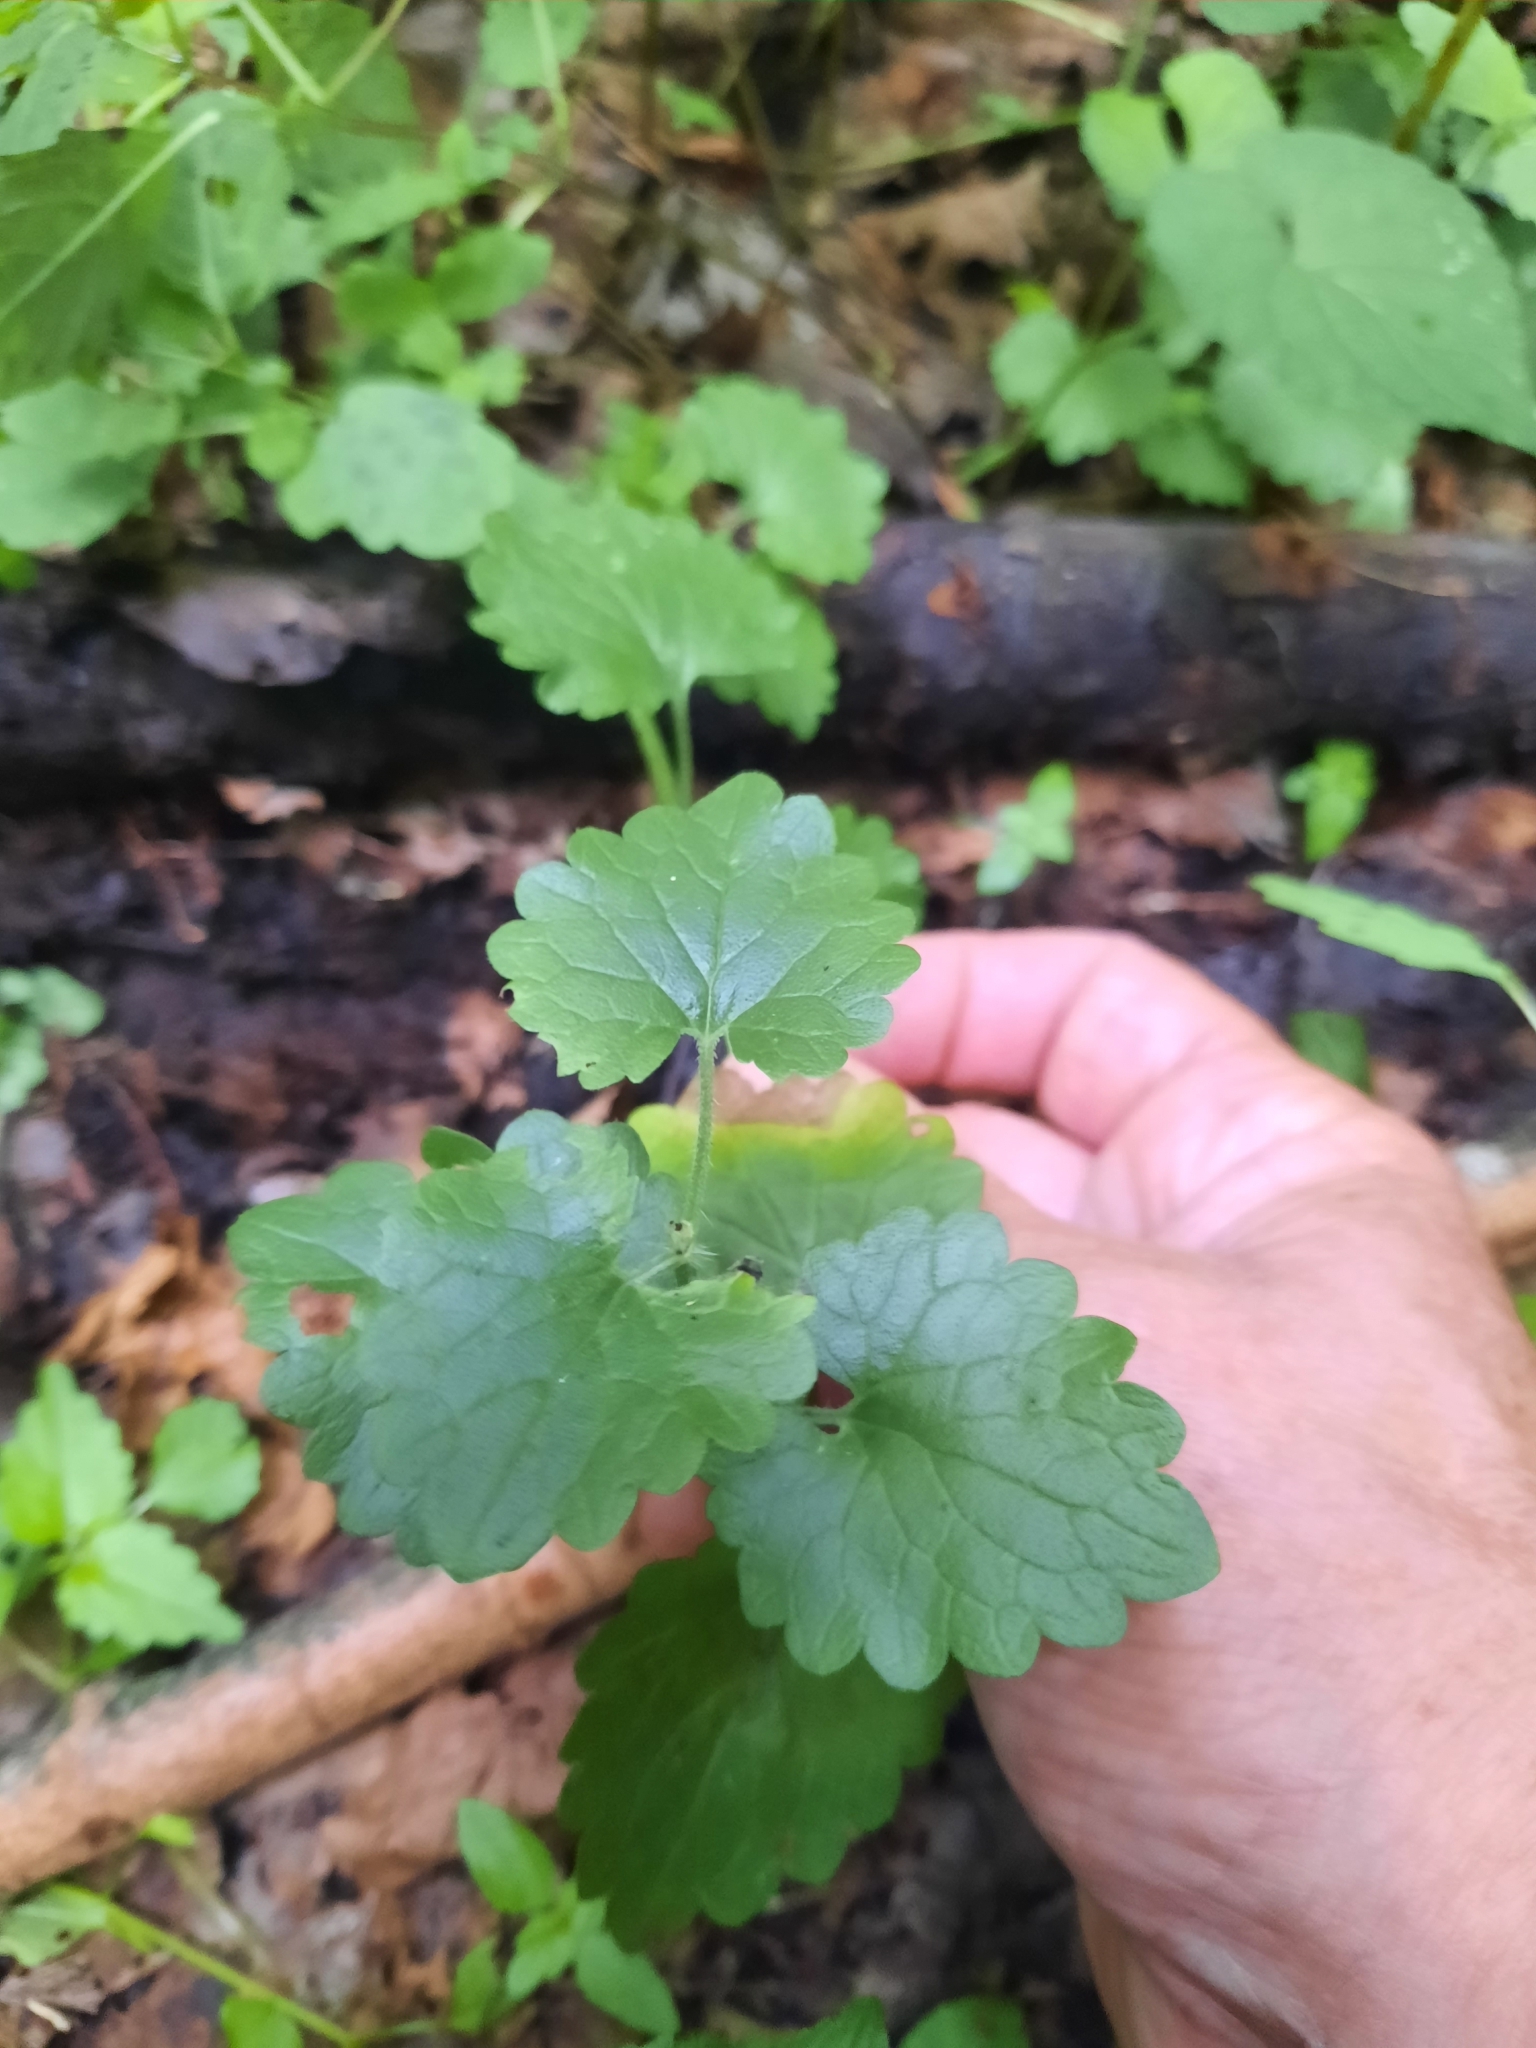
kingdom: Animalia
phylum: Arthropoda
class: Insecta
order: Hymenoptera
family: Cynipidae
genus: Liposthenes
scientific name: Liposthenes glechomae
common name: Gall wasp
